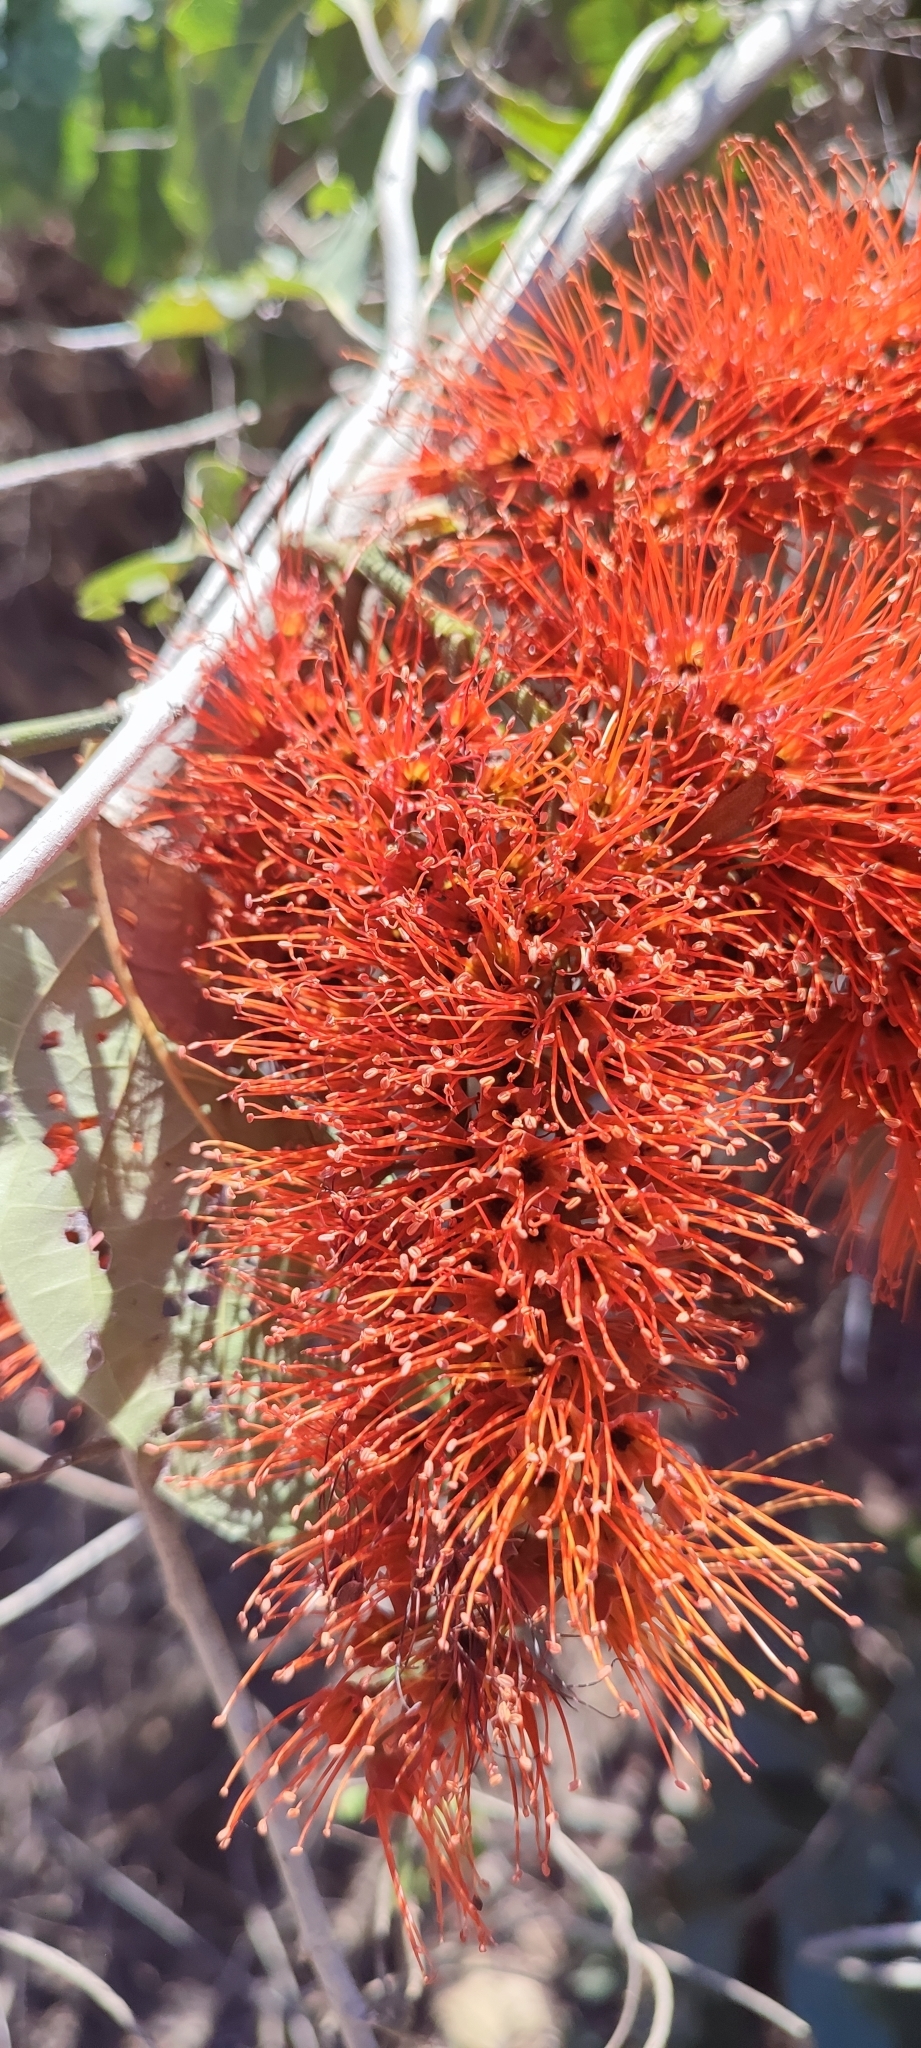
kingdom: Plantae
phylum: Tracheophyta
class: Magnoliopsida
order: Myrtales
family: Combretaceae
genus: Combretum
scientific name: Combretum farinosum
